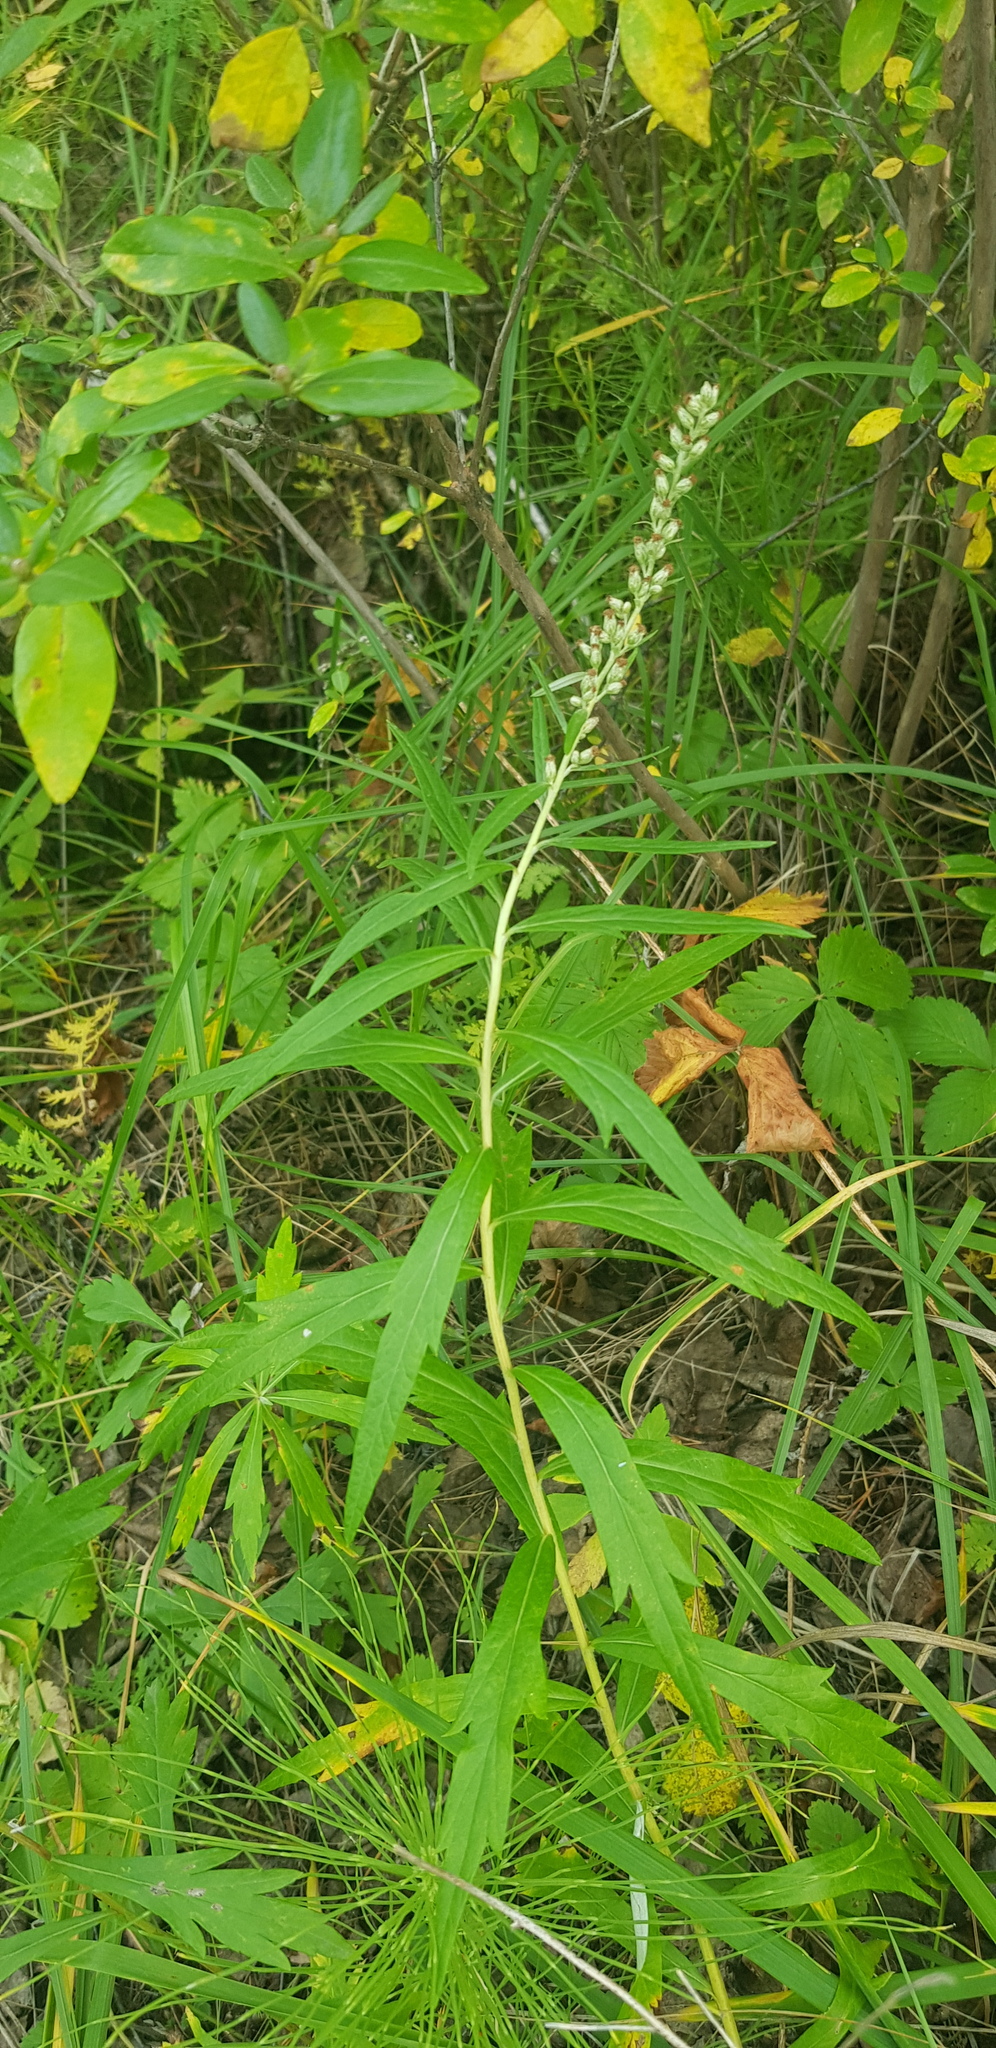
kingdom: Plantae
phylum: Tracheophyta
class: Magnoliopsida
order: Asterales
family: Asteraceae
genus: Artemisia
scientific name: Artemisia integrifolia
